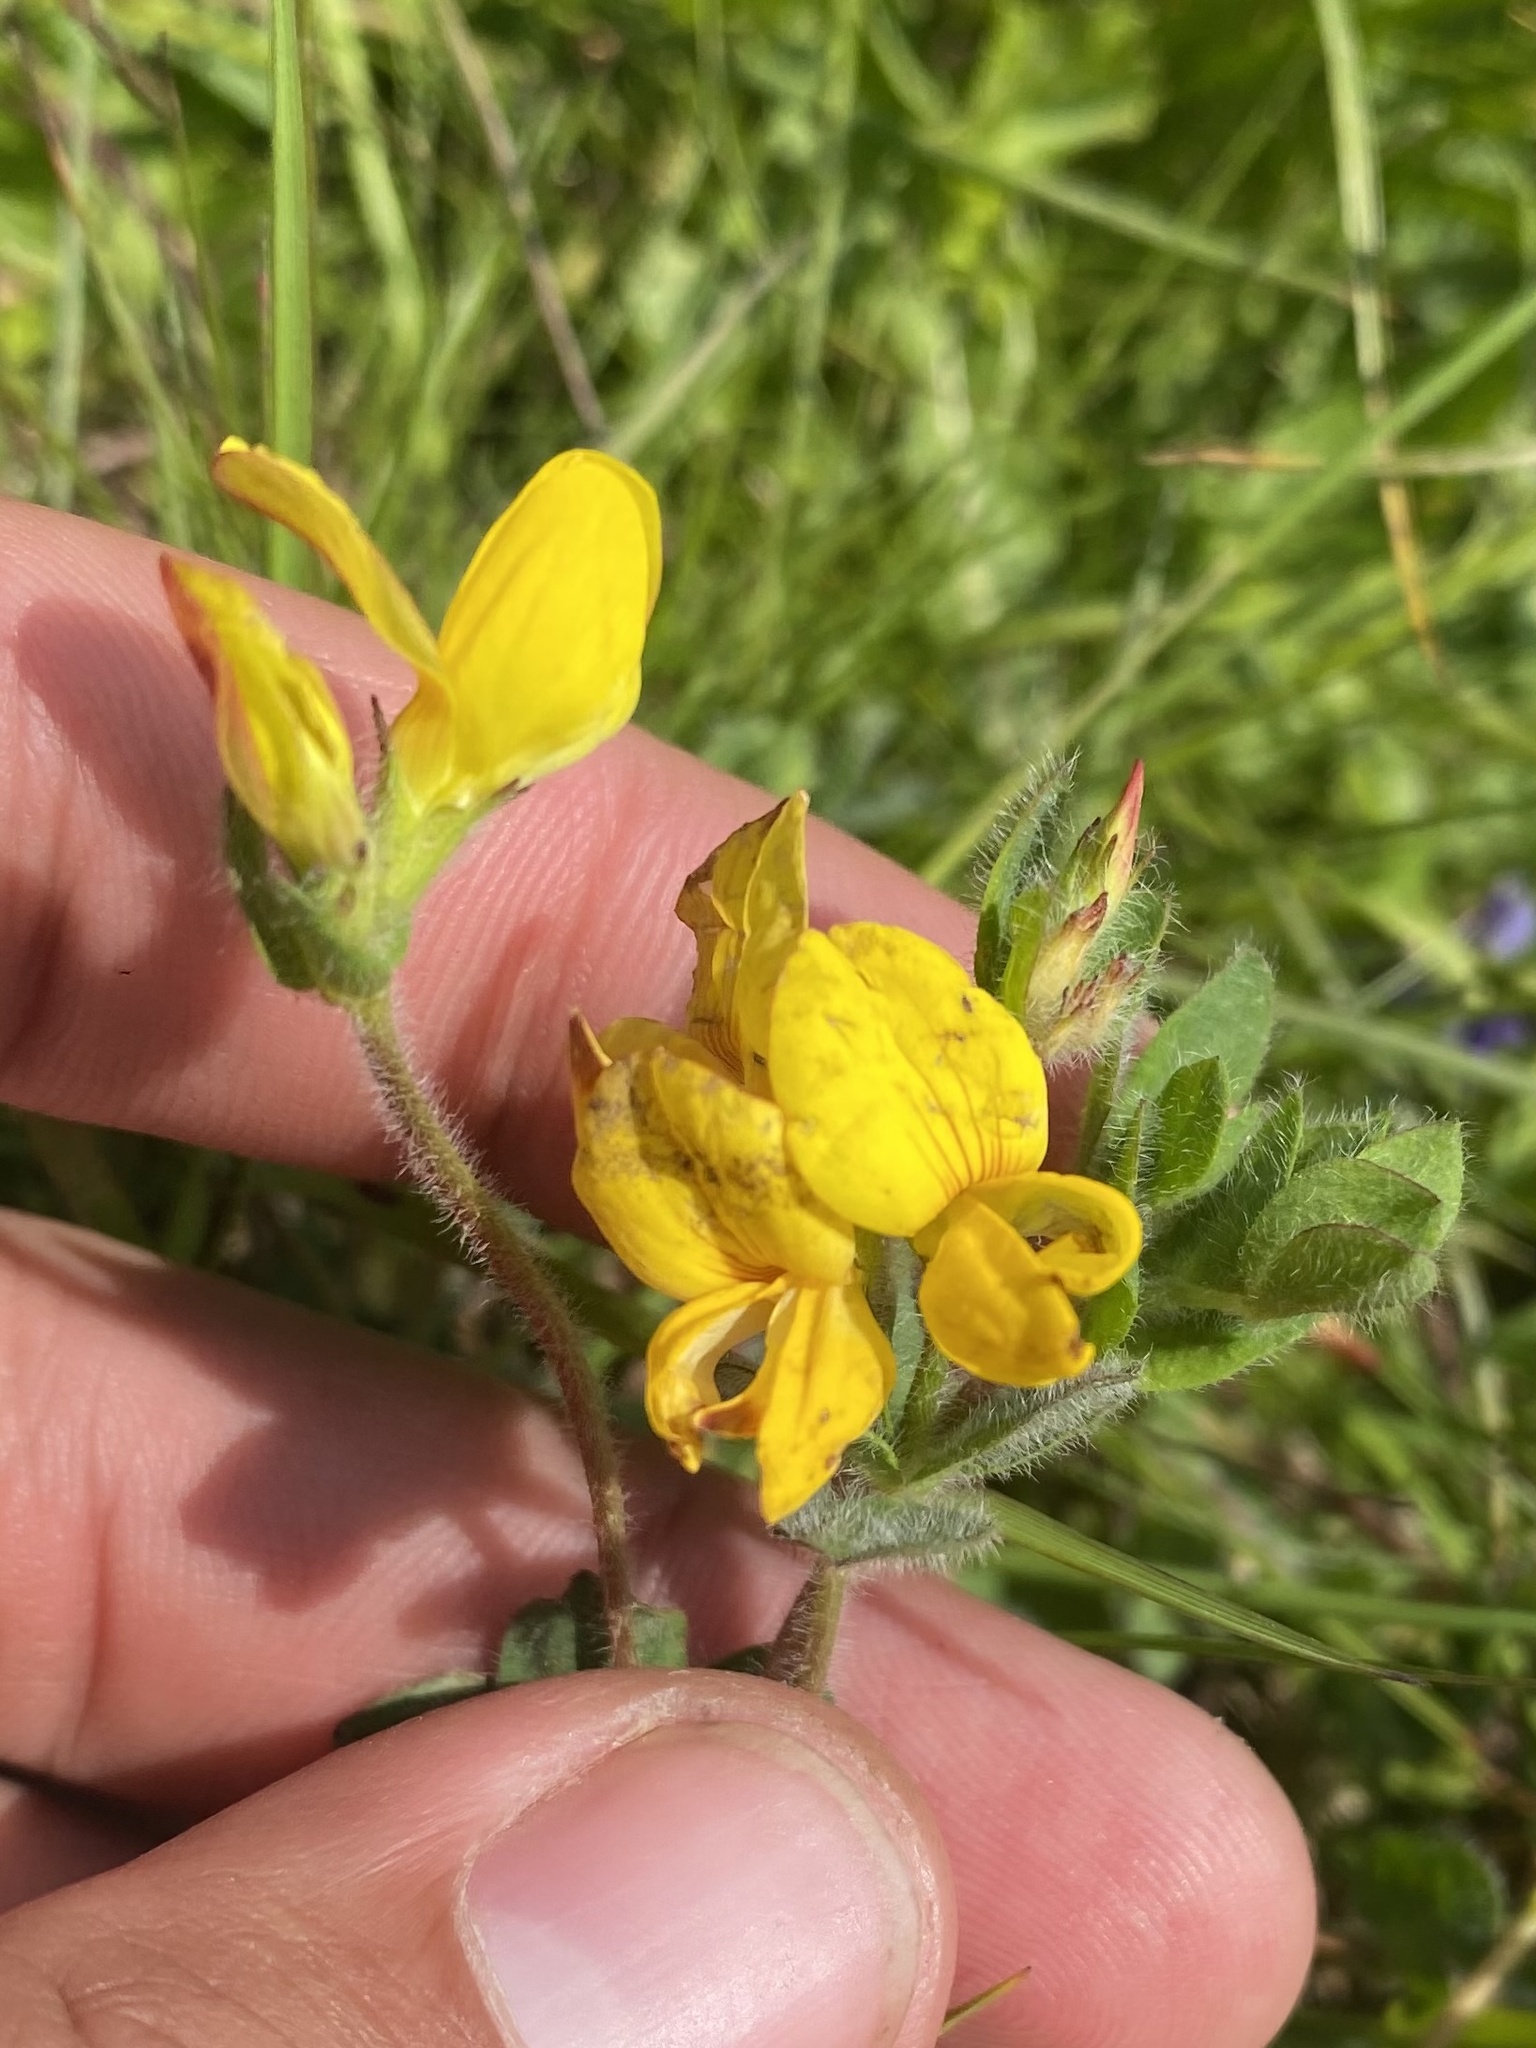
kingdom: Plantae
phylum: Tracheophyta
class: Magnoliopsida
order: Fabales
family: Fabaceae
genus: Lotus
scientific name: Lotus corniculatus
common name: Common bird's-foot-trefoil
